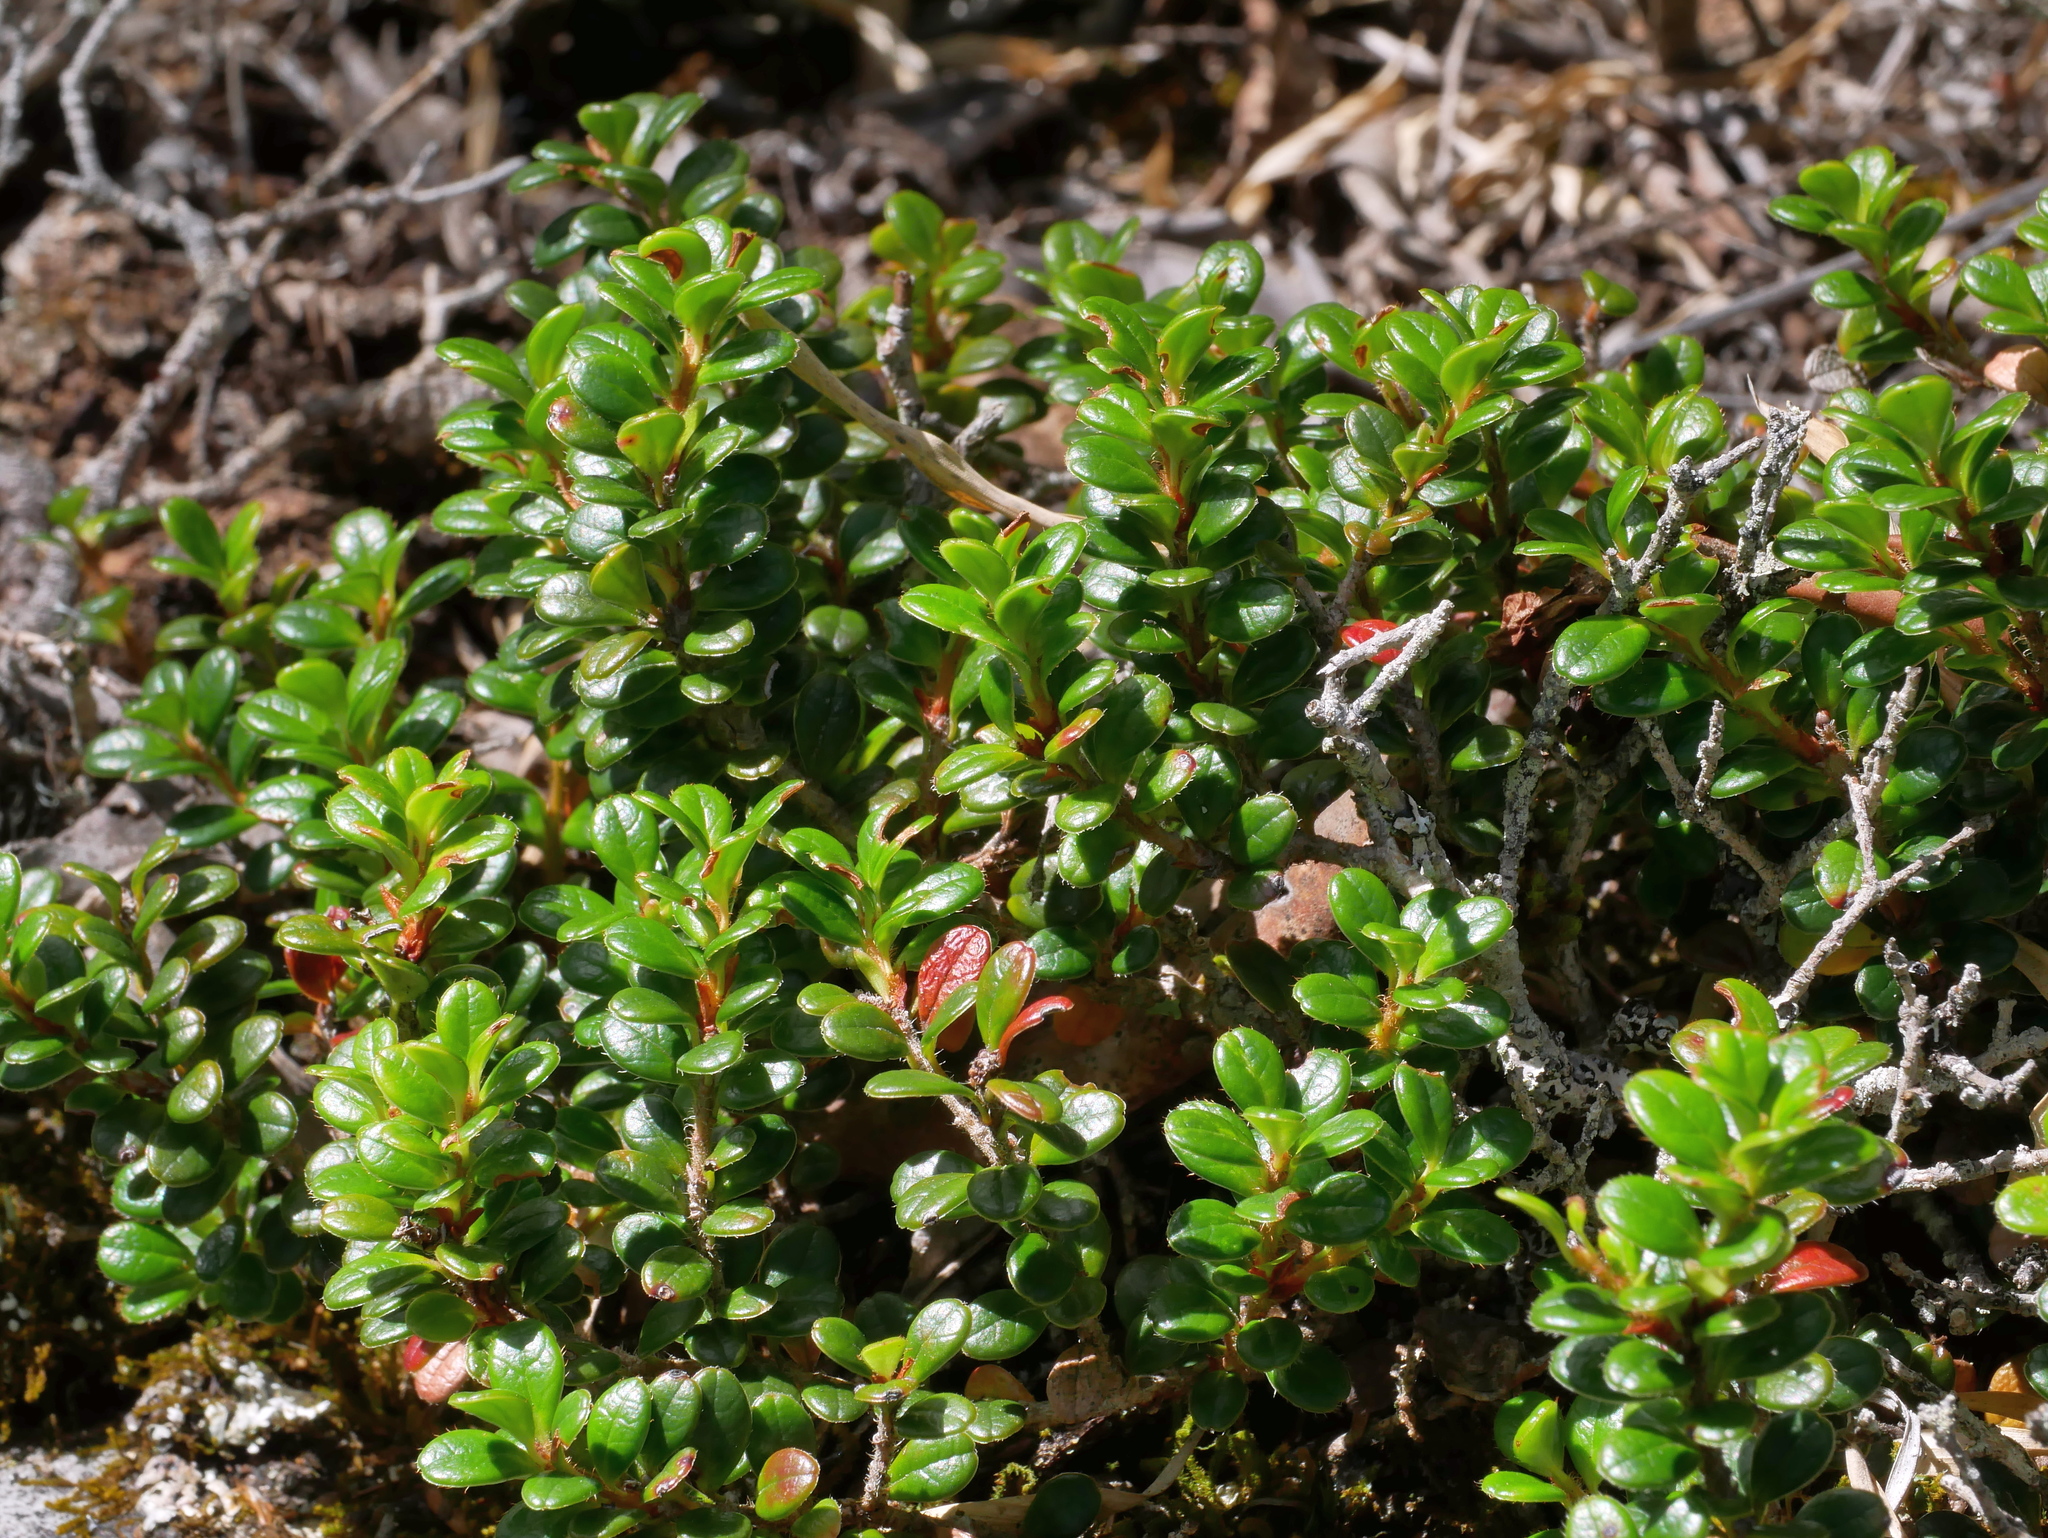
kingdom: Plantae
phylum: Tracheophyta
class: Magnoliopsida
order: Ericales
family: Ericaceae
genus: Vaccinium
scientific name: Vaccinium delavayi
